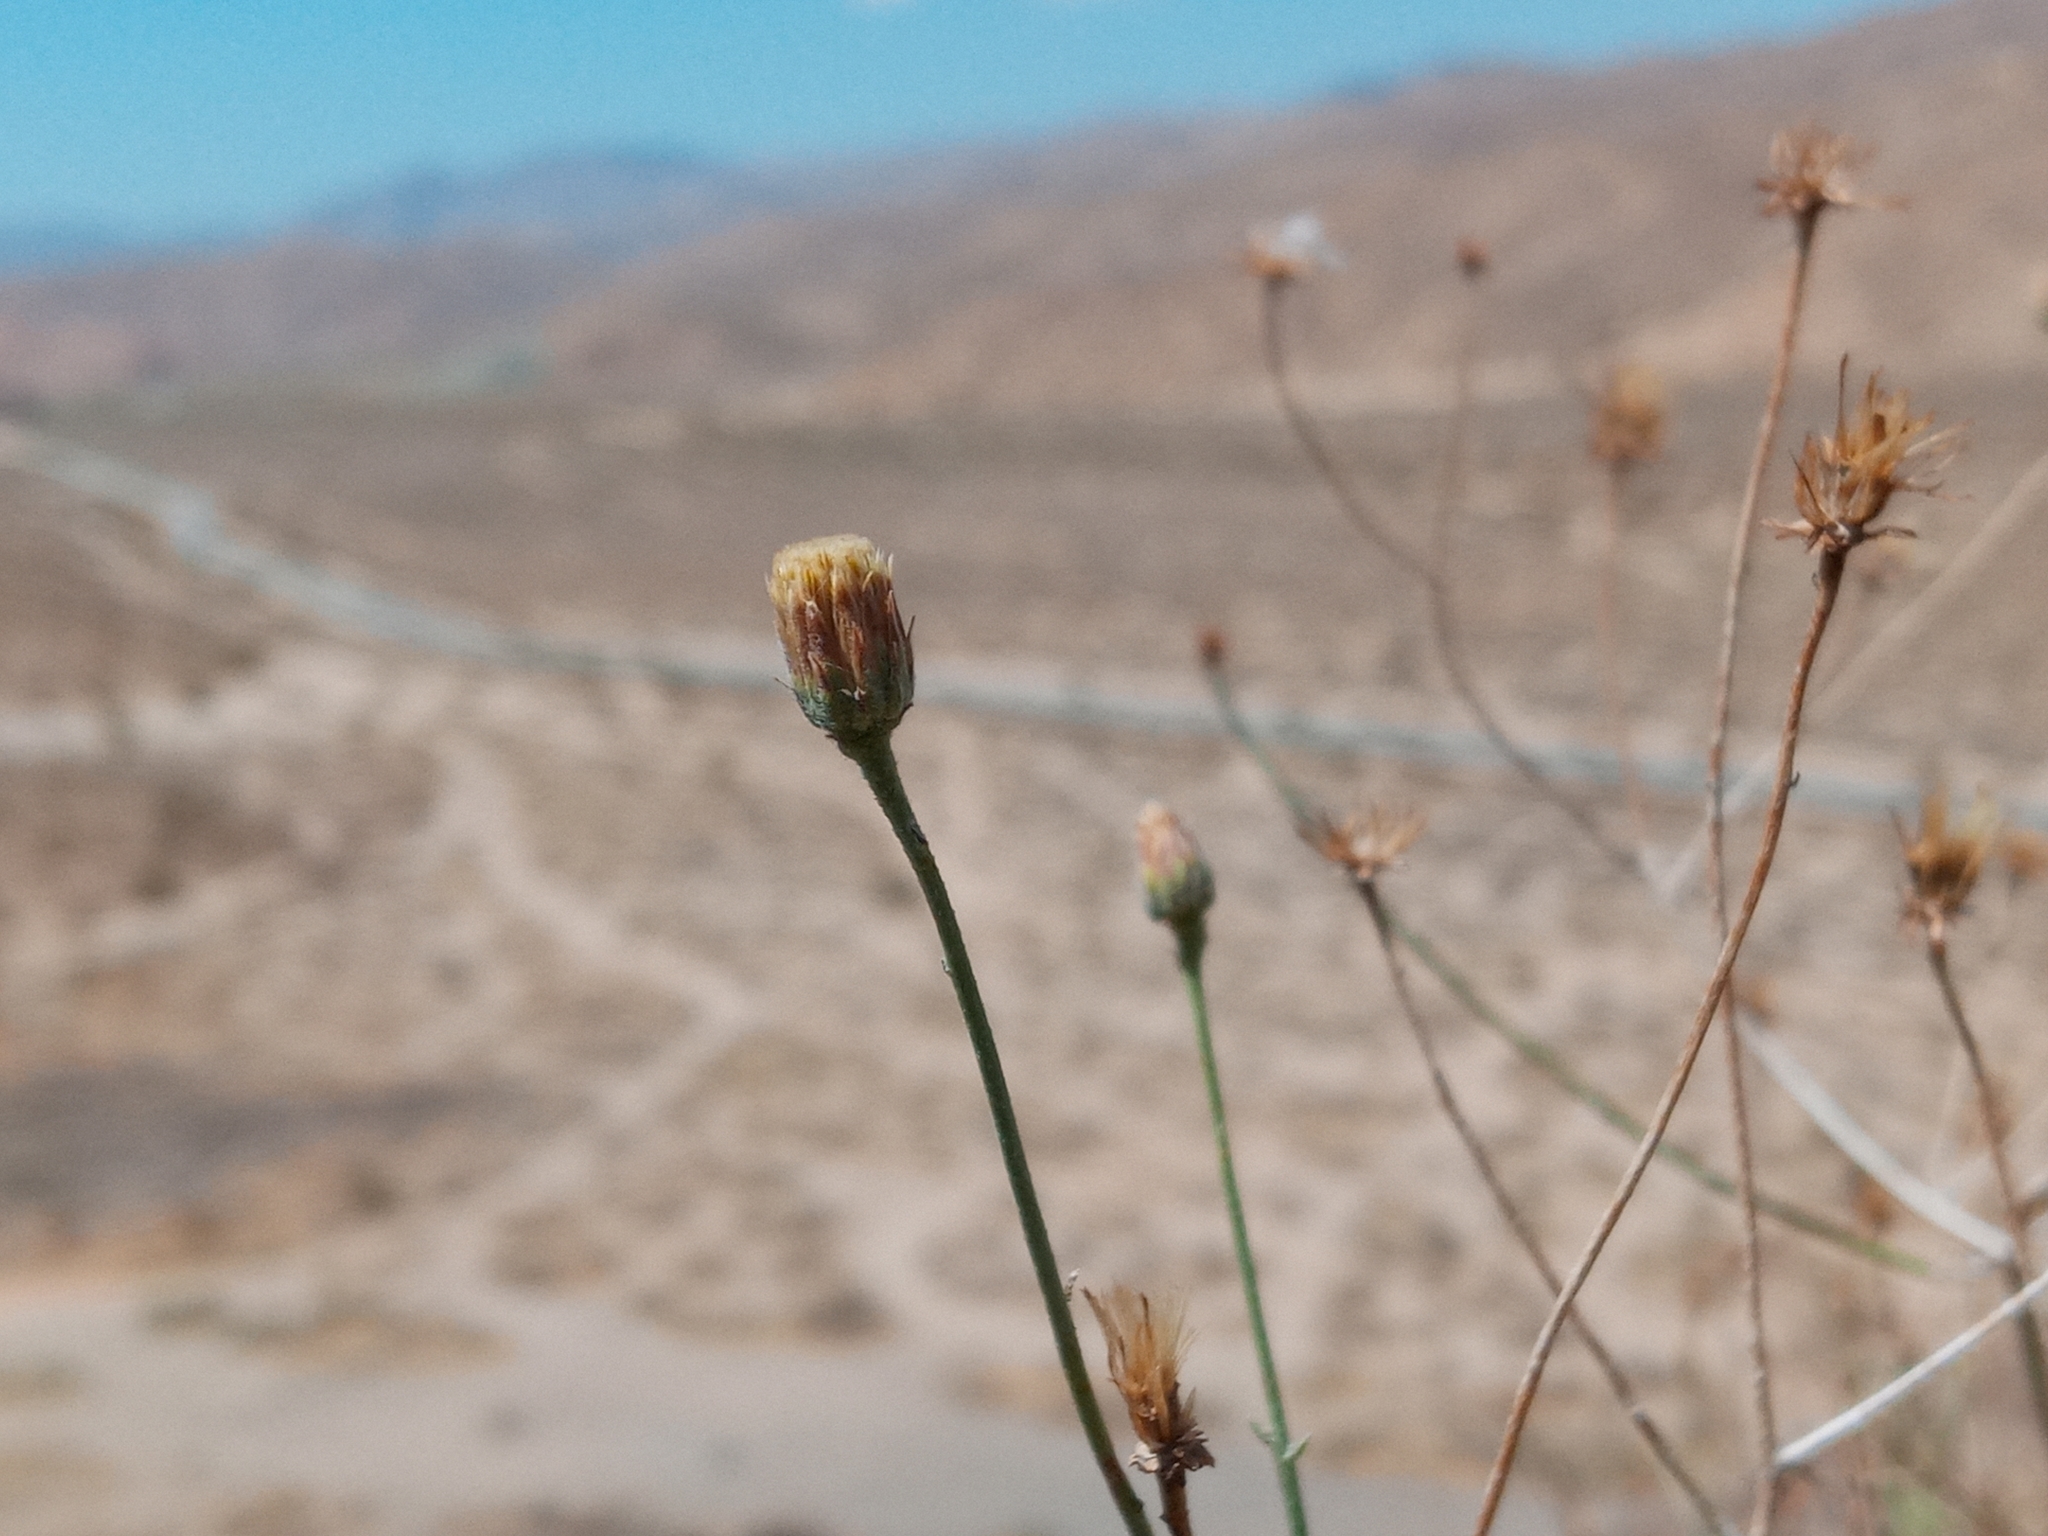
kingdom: Plantae
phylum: Tracheophyta
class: Magnoliopsida
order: Asterales
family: Asteraceae
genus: Bebbia
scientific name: Bebbia juncea
